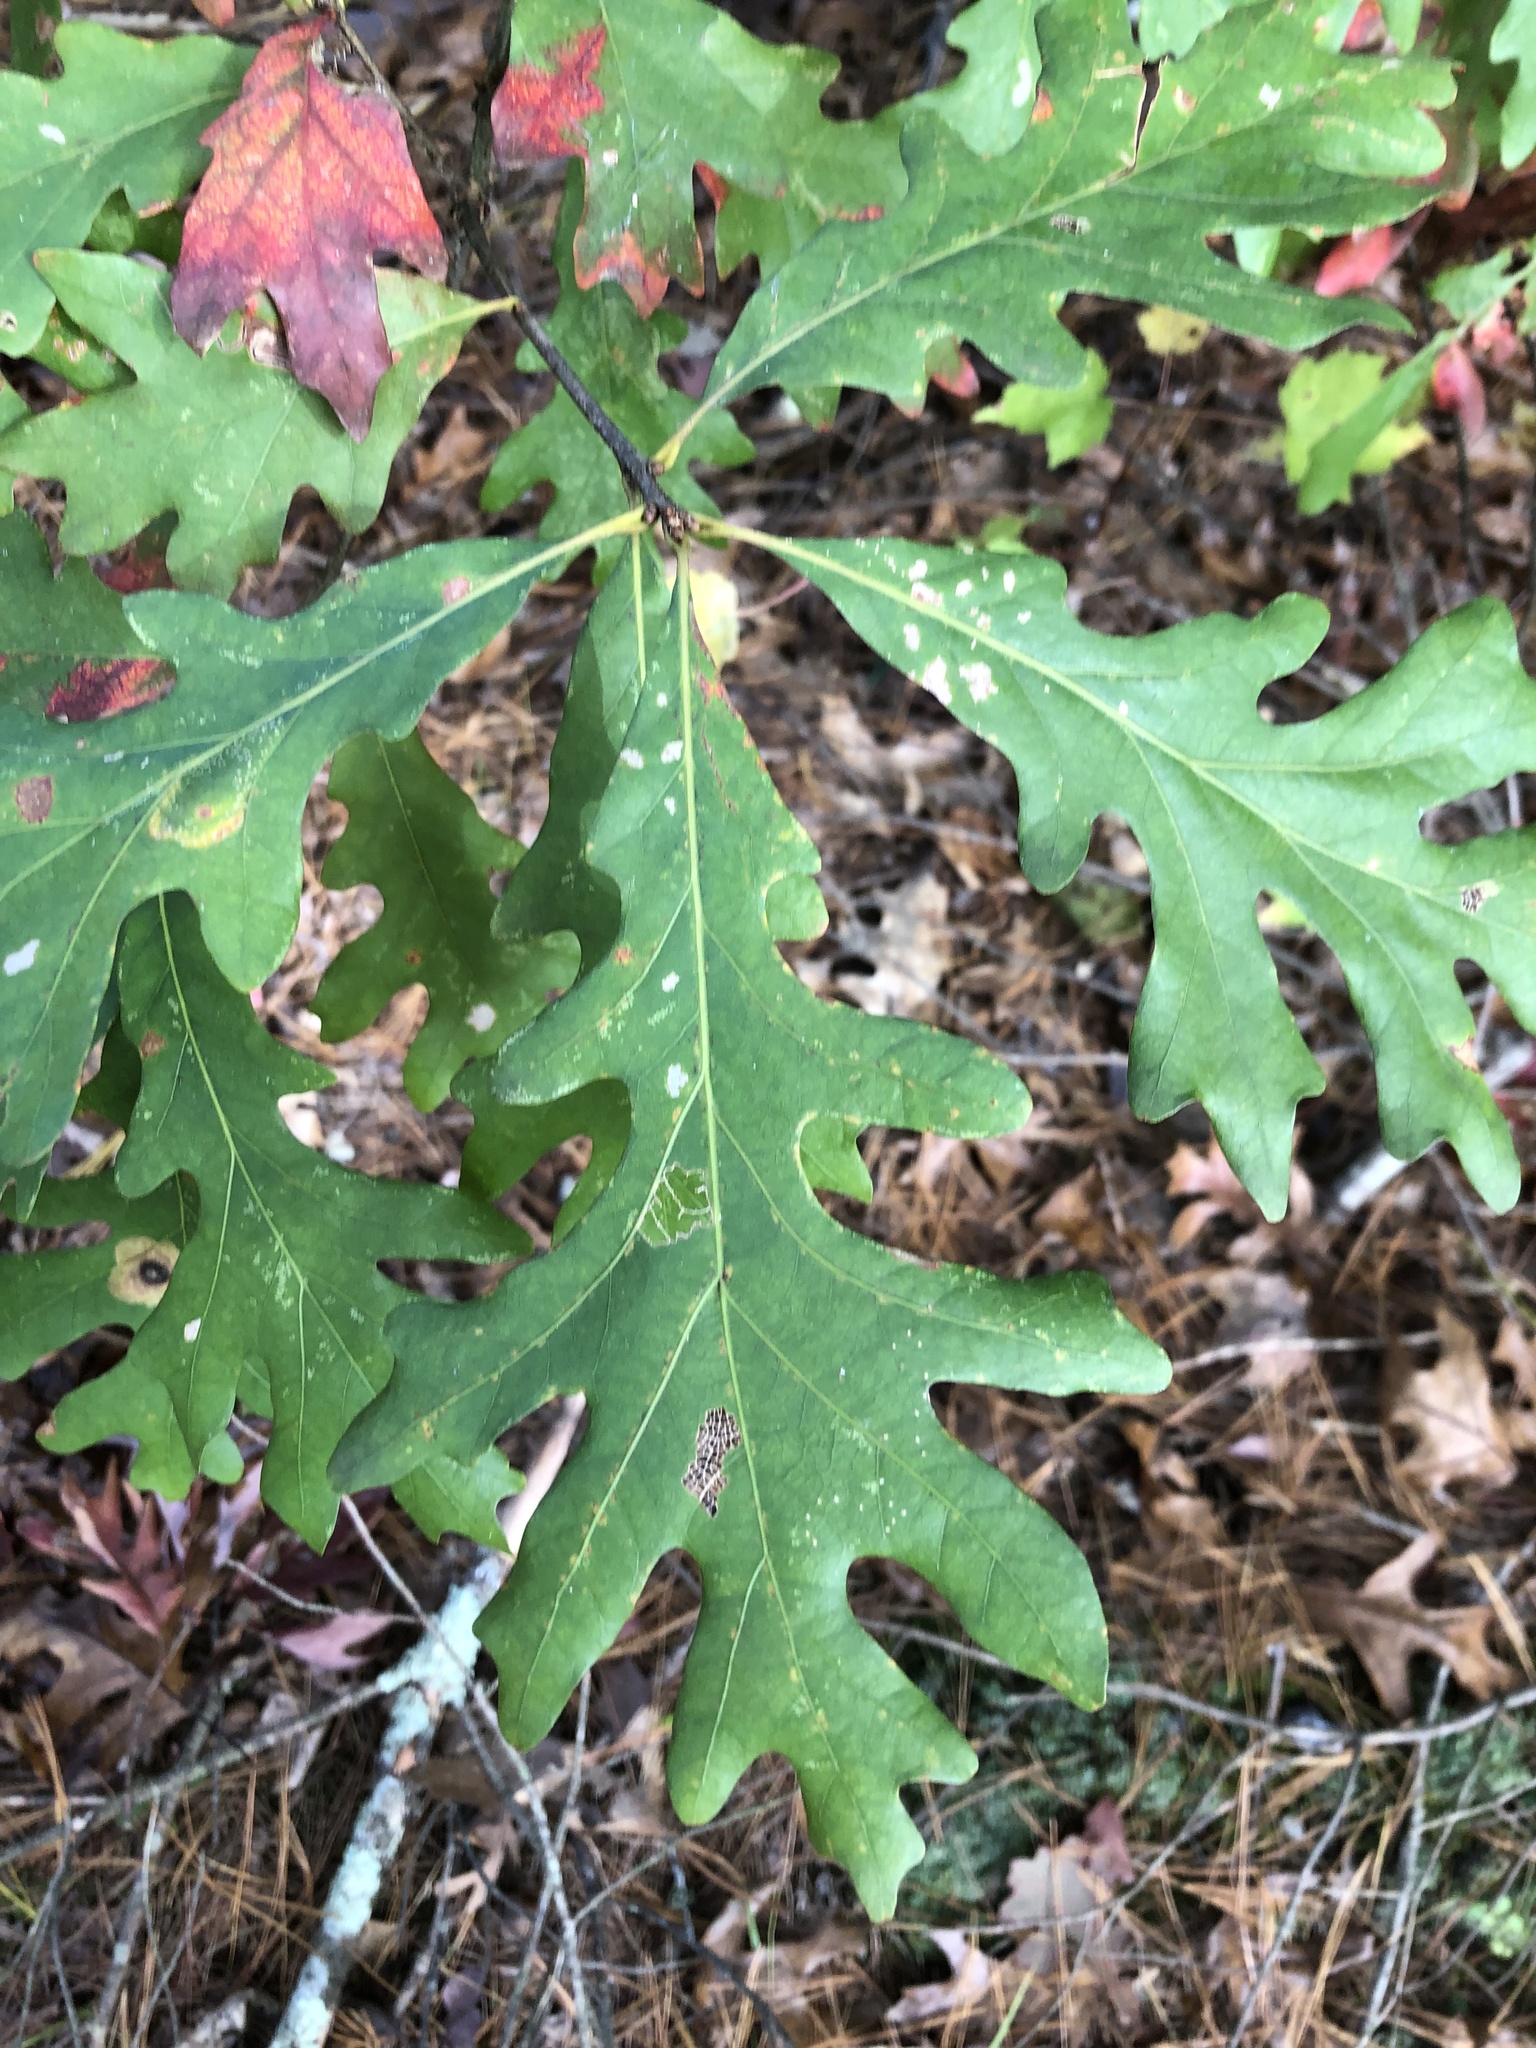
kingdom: Plantae
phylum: Tracheophyta
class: Magnoliopsida
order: Fagales
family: Fagaceae
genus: Quercus
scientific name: Quercus alba
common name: White oak
